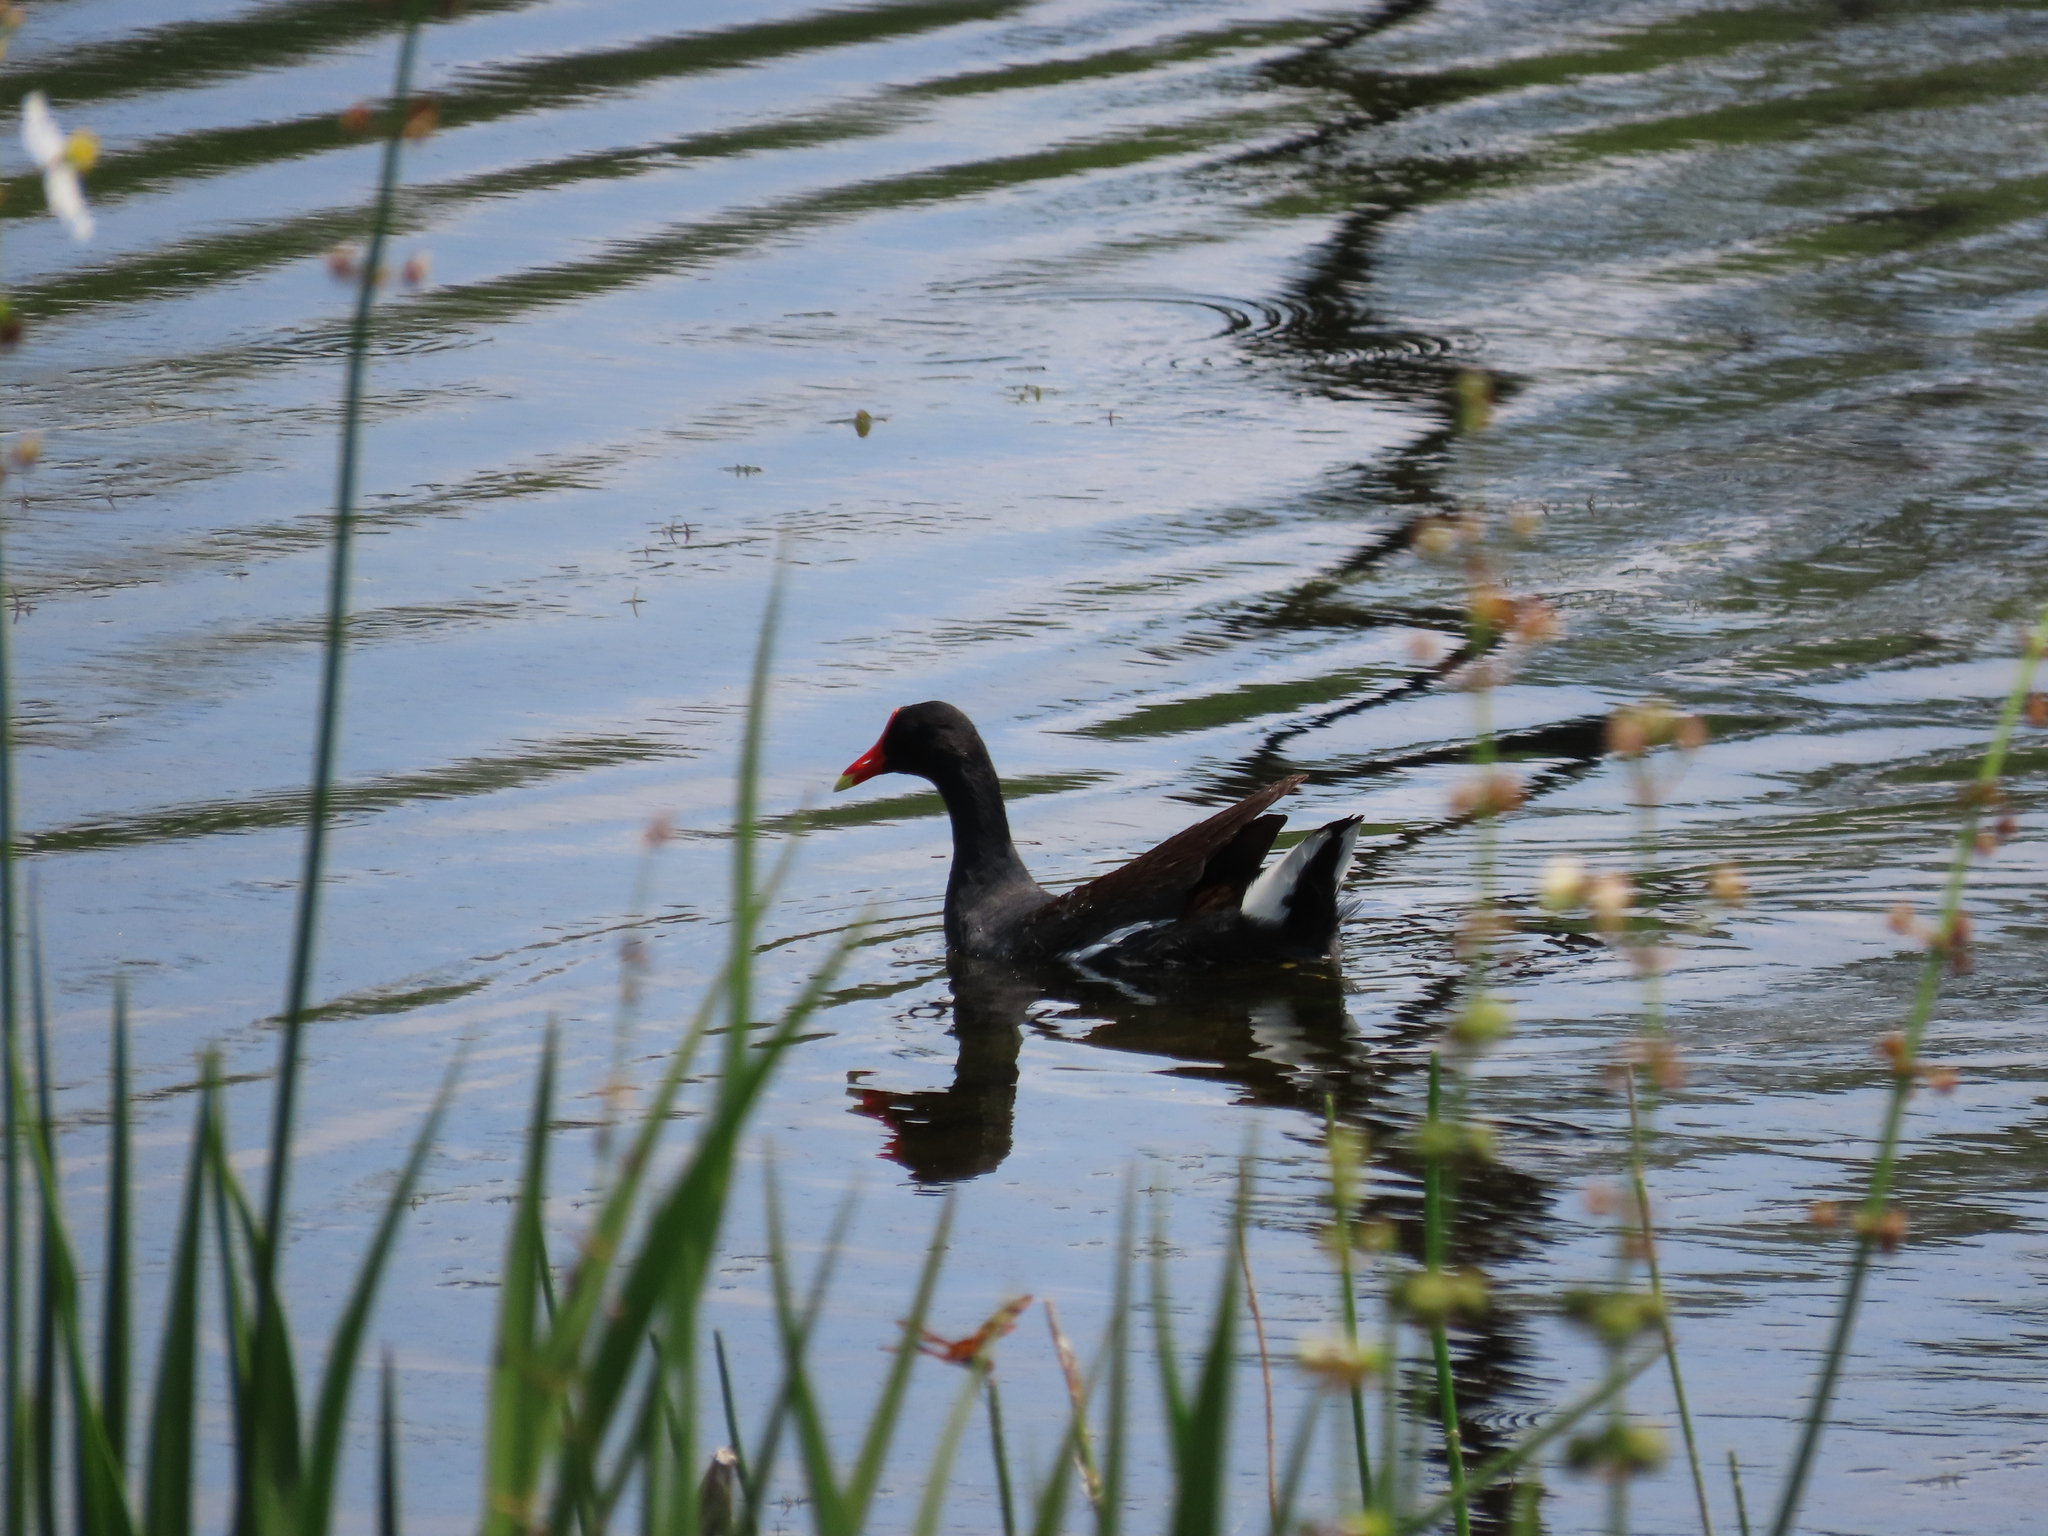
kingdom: Animalia
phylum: Chordata
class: Aves
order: Gruiformes
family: Rallidae
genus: Gallinula
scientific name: Gallinula chloropus
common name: Common moorhen
